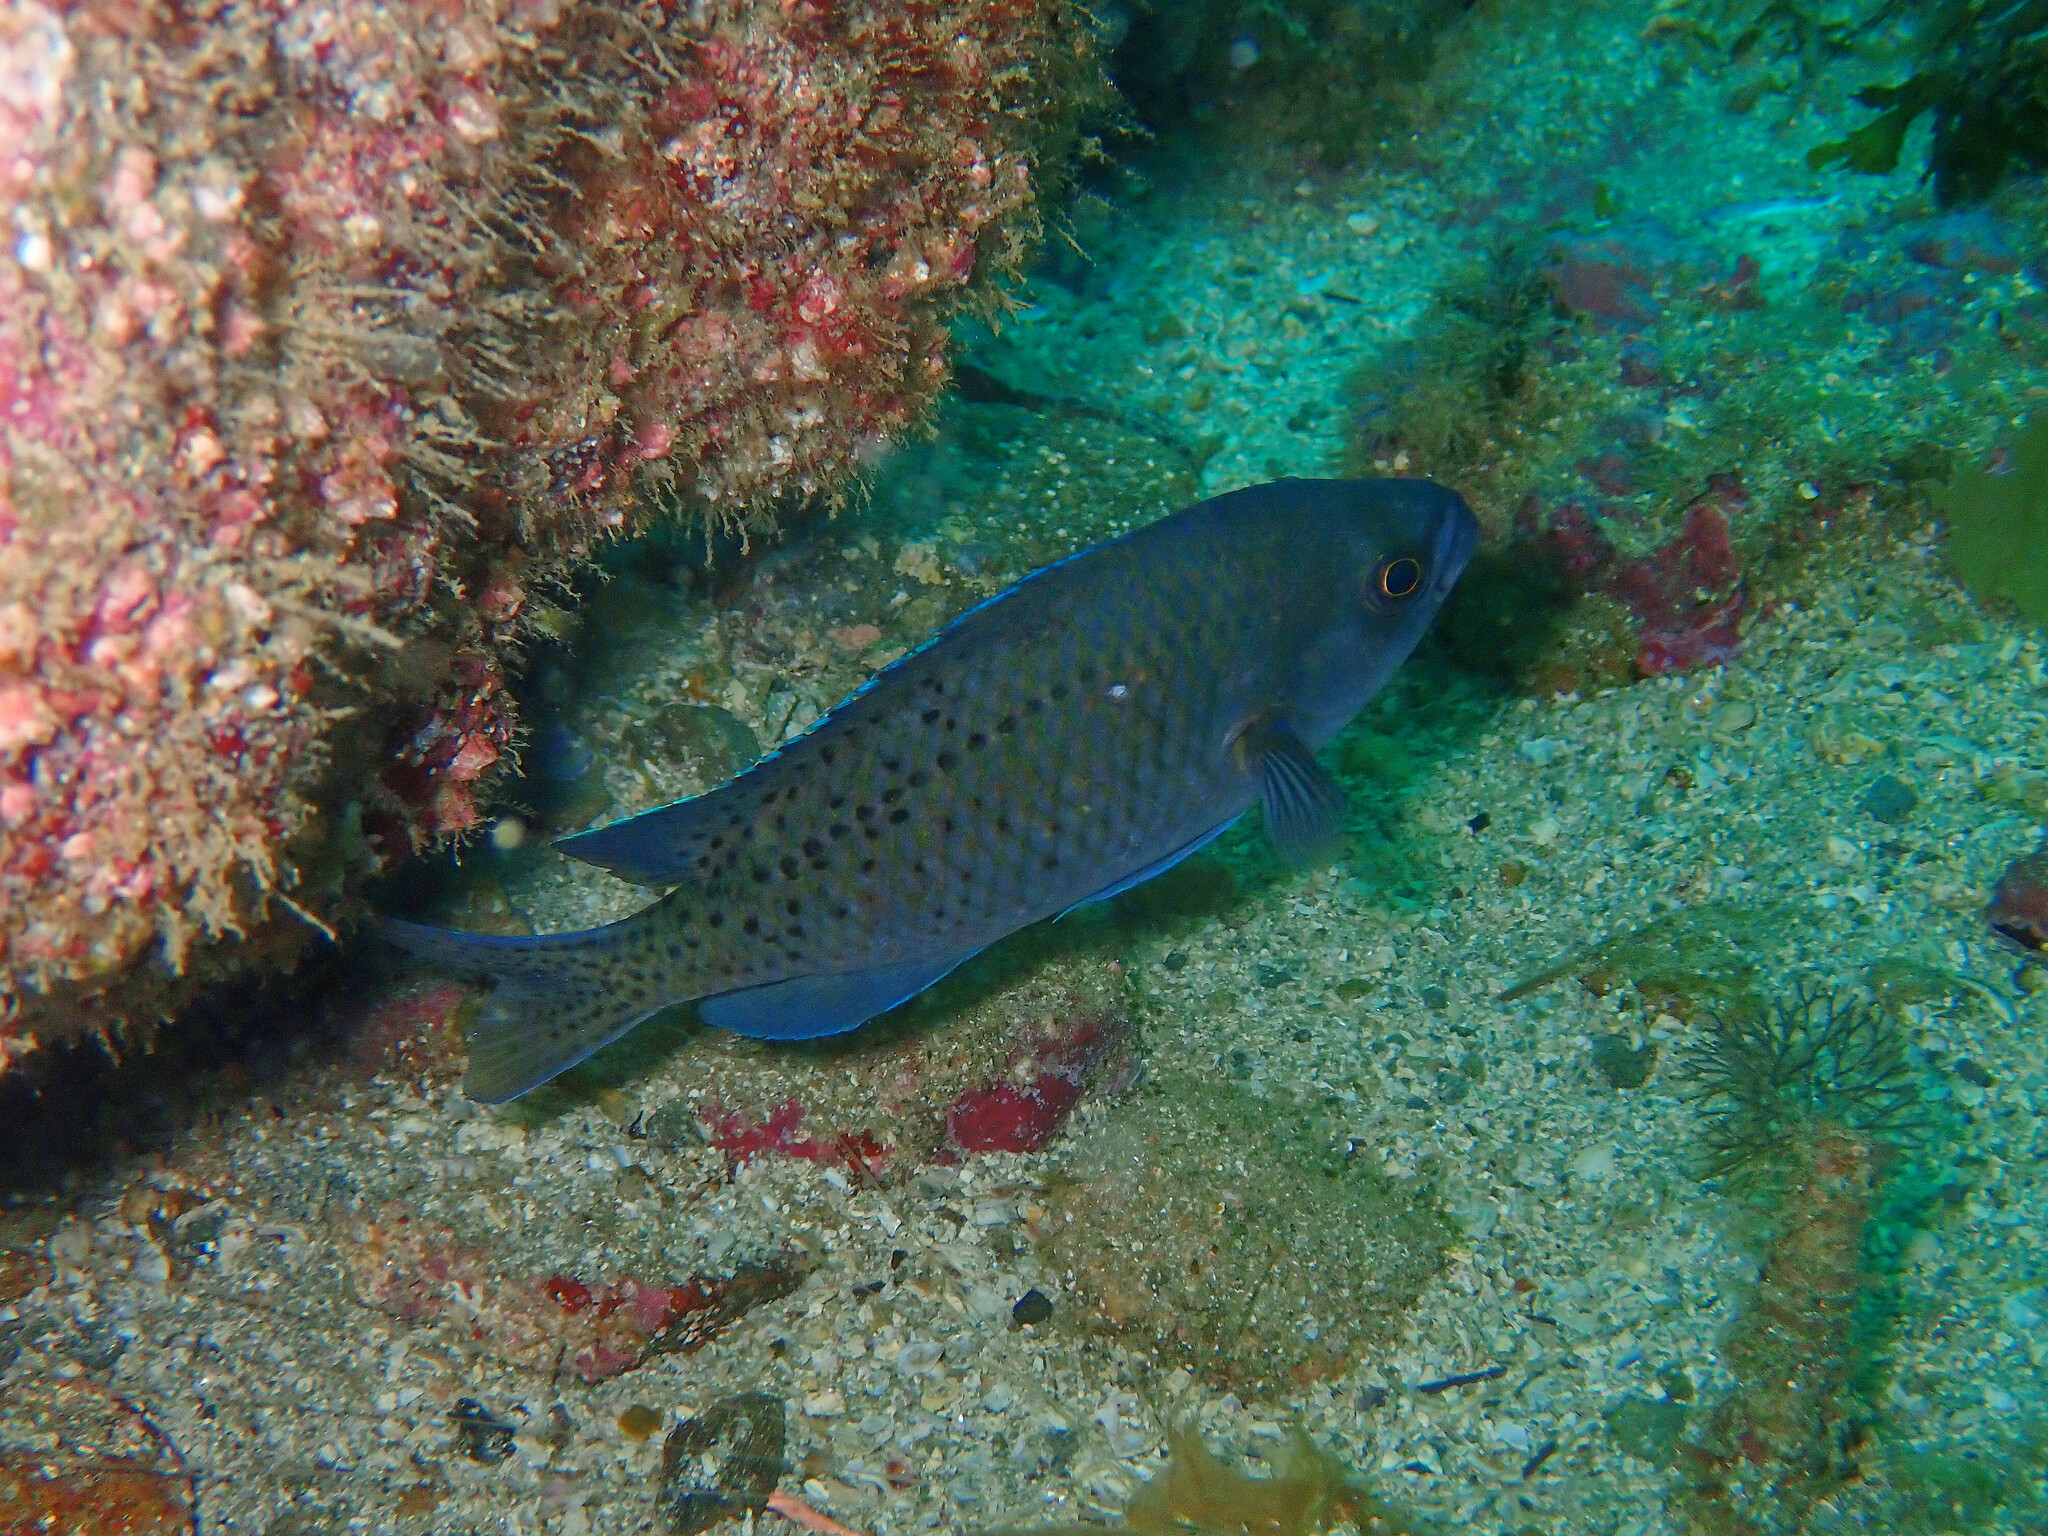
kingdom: Animalia
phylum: Chordata
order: Perciformes
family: Pomacentridae
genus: Chromis
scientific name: Chromis punctipinnis
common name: Blacksmith
